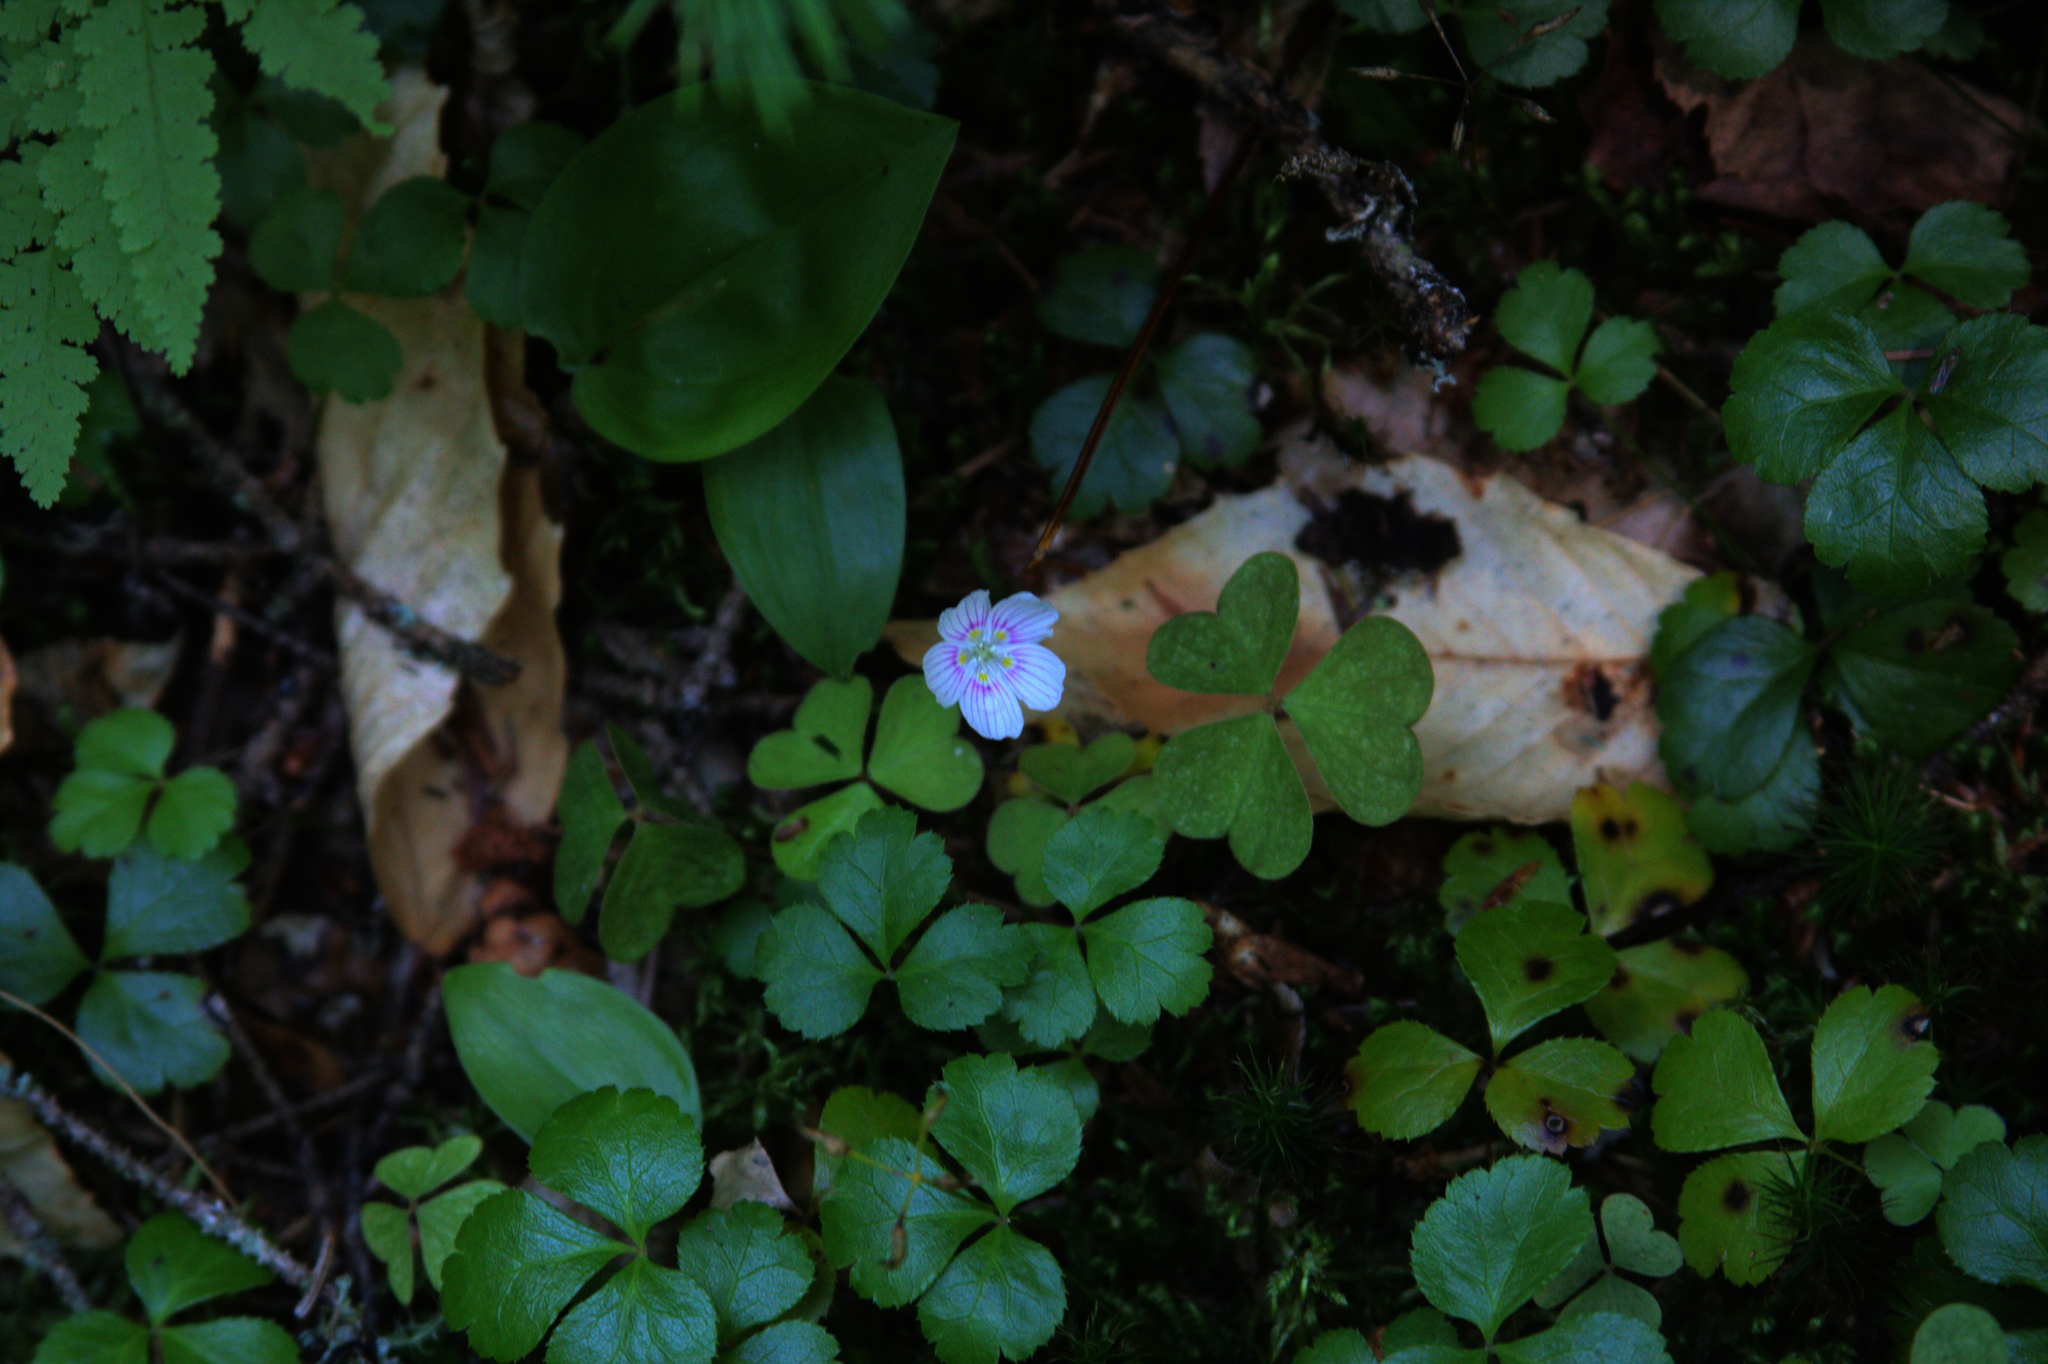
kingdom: Plantae
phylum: Tracheophyta
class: Magnoliopsida
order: Ranunculales
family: Ranunculaceae
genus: Coptis
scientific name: Coptis trifolia
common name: Canker-root
